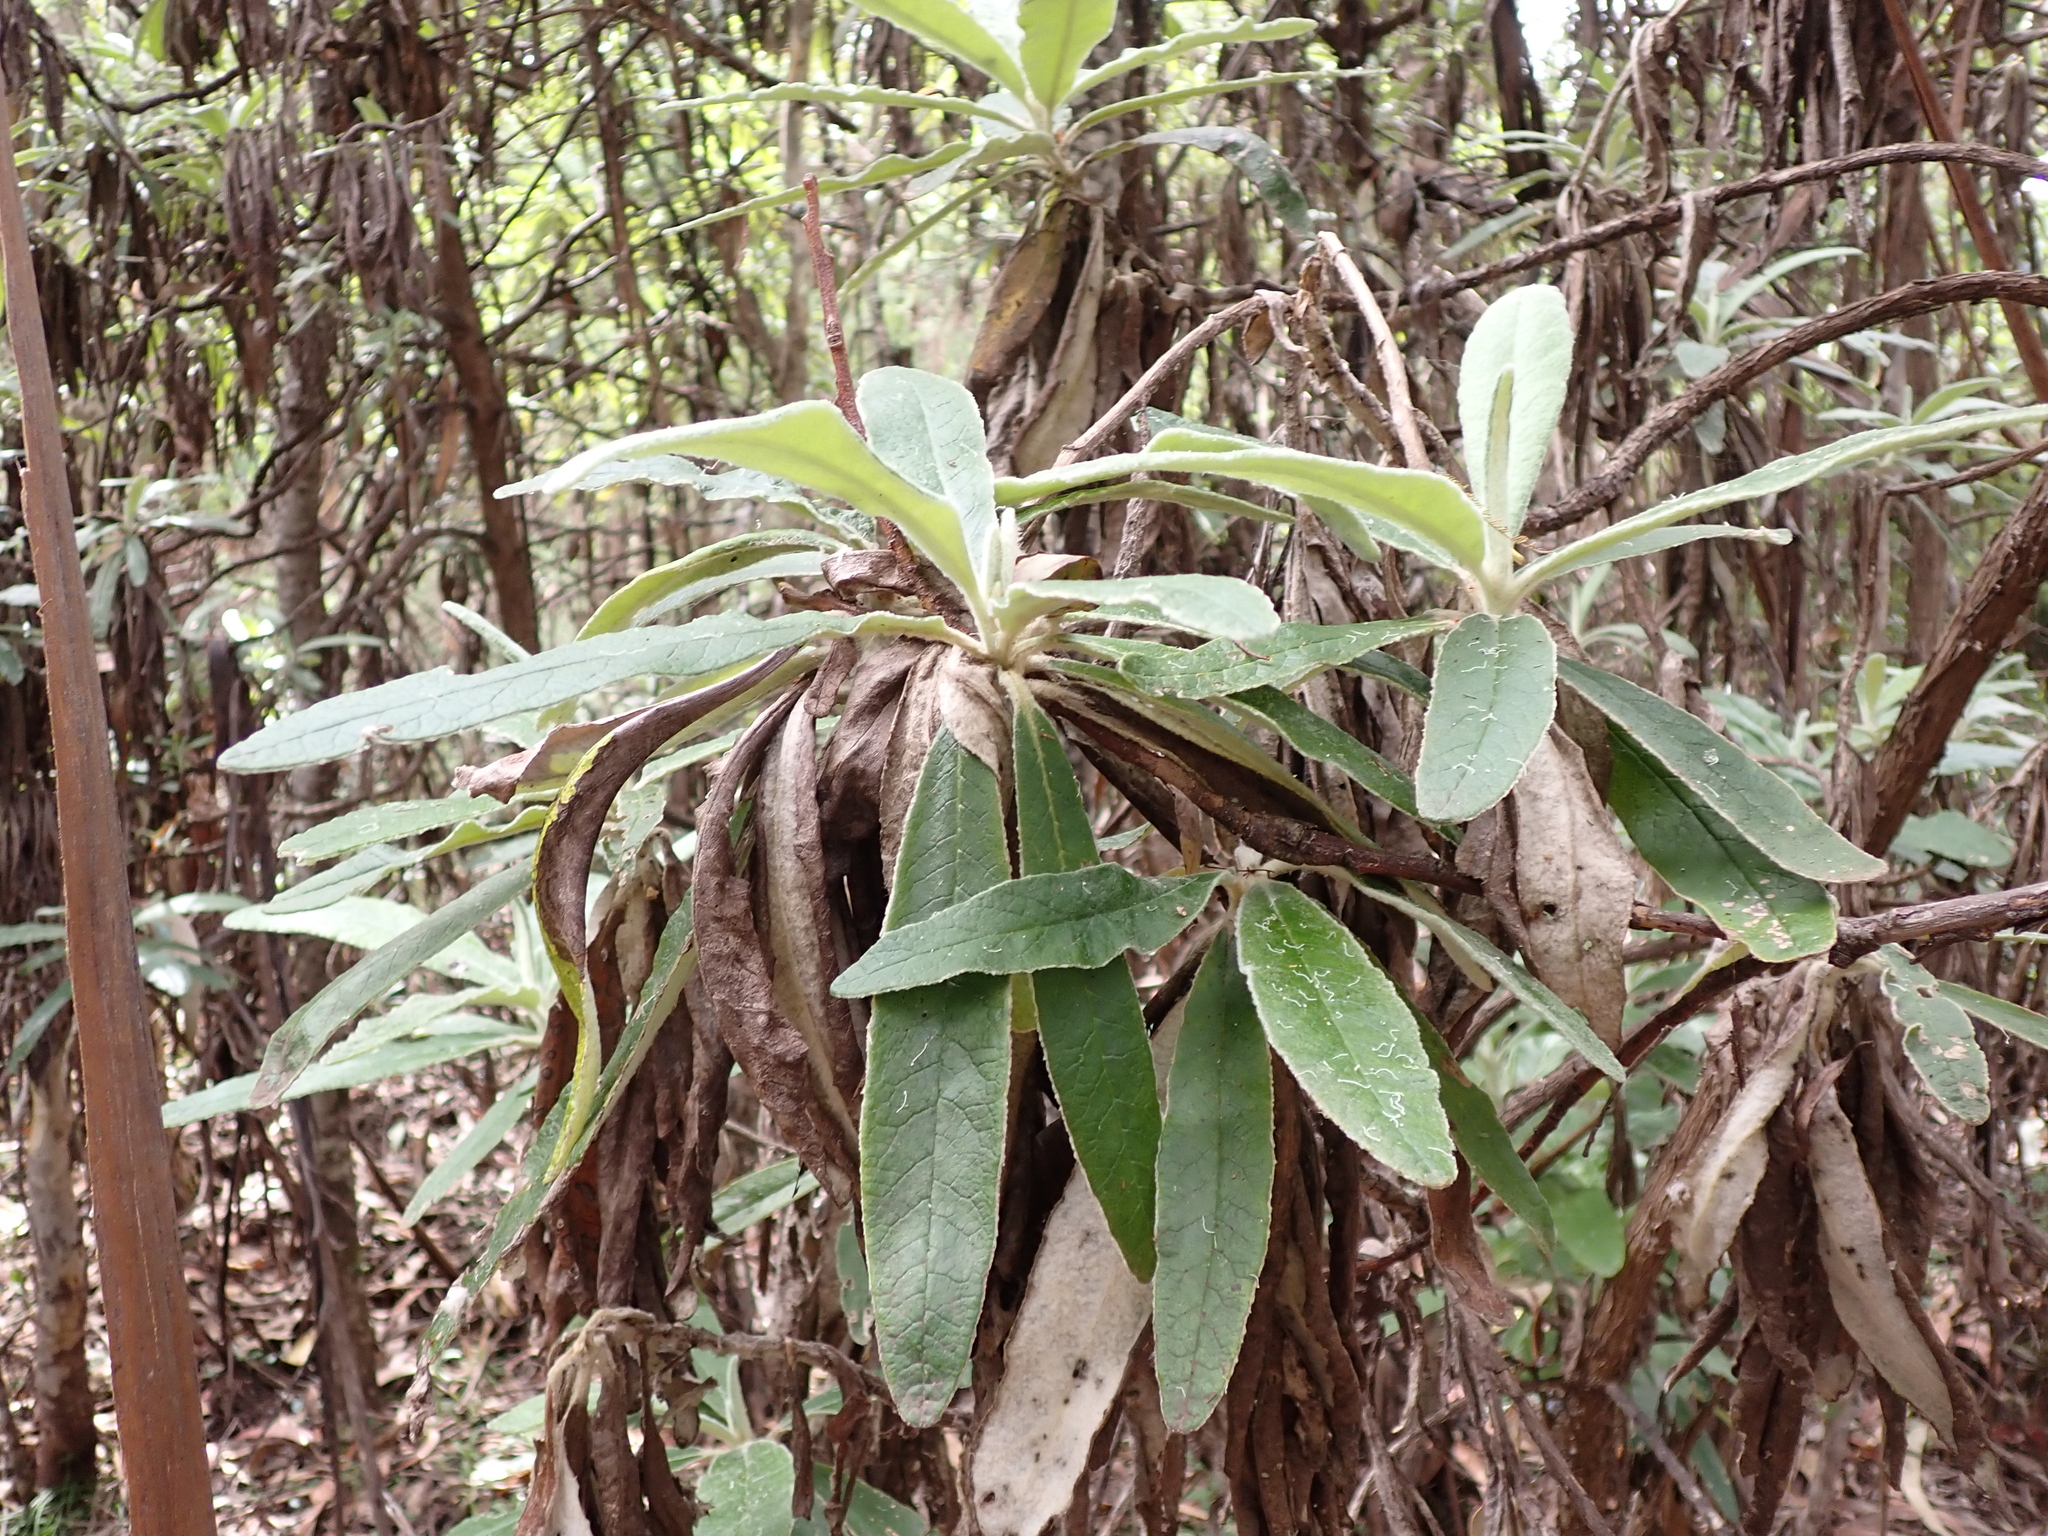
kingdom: Plantae
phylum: Tracheophyta
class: Magnoliopsida
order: Asterales
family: Asteraceae
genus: Bedfordia
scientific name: Bedfordia arborescens
